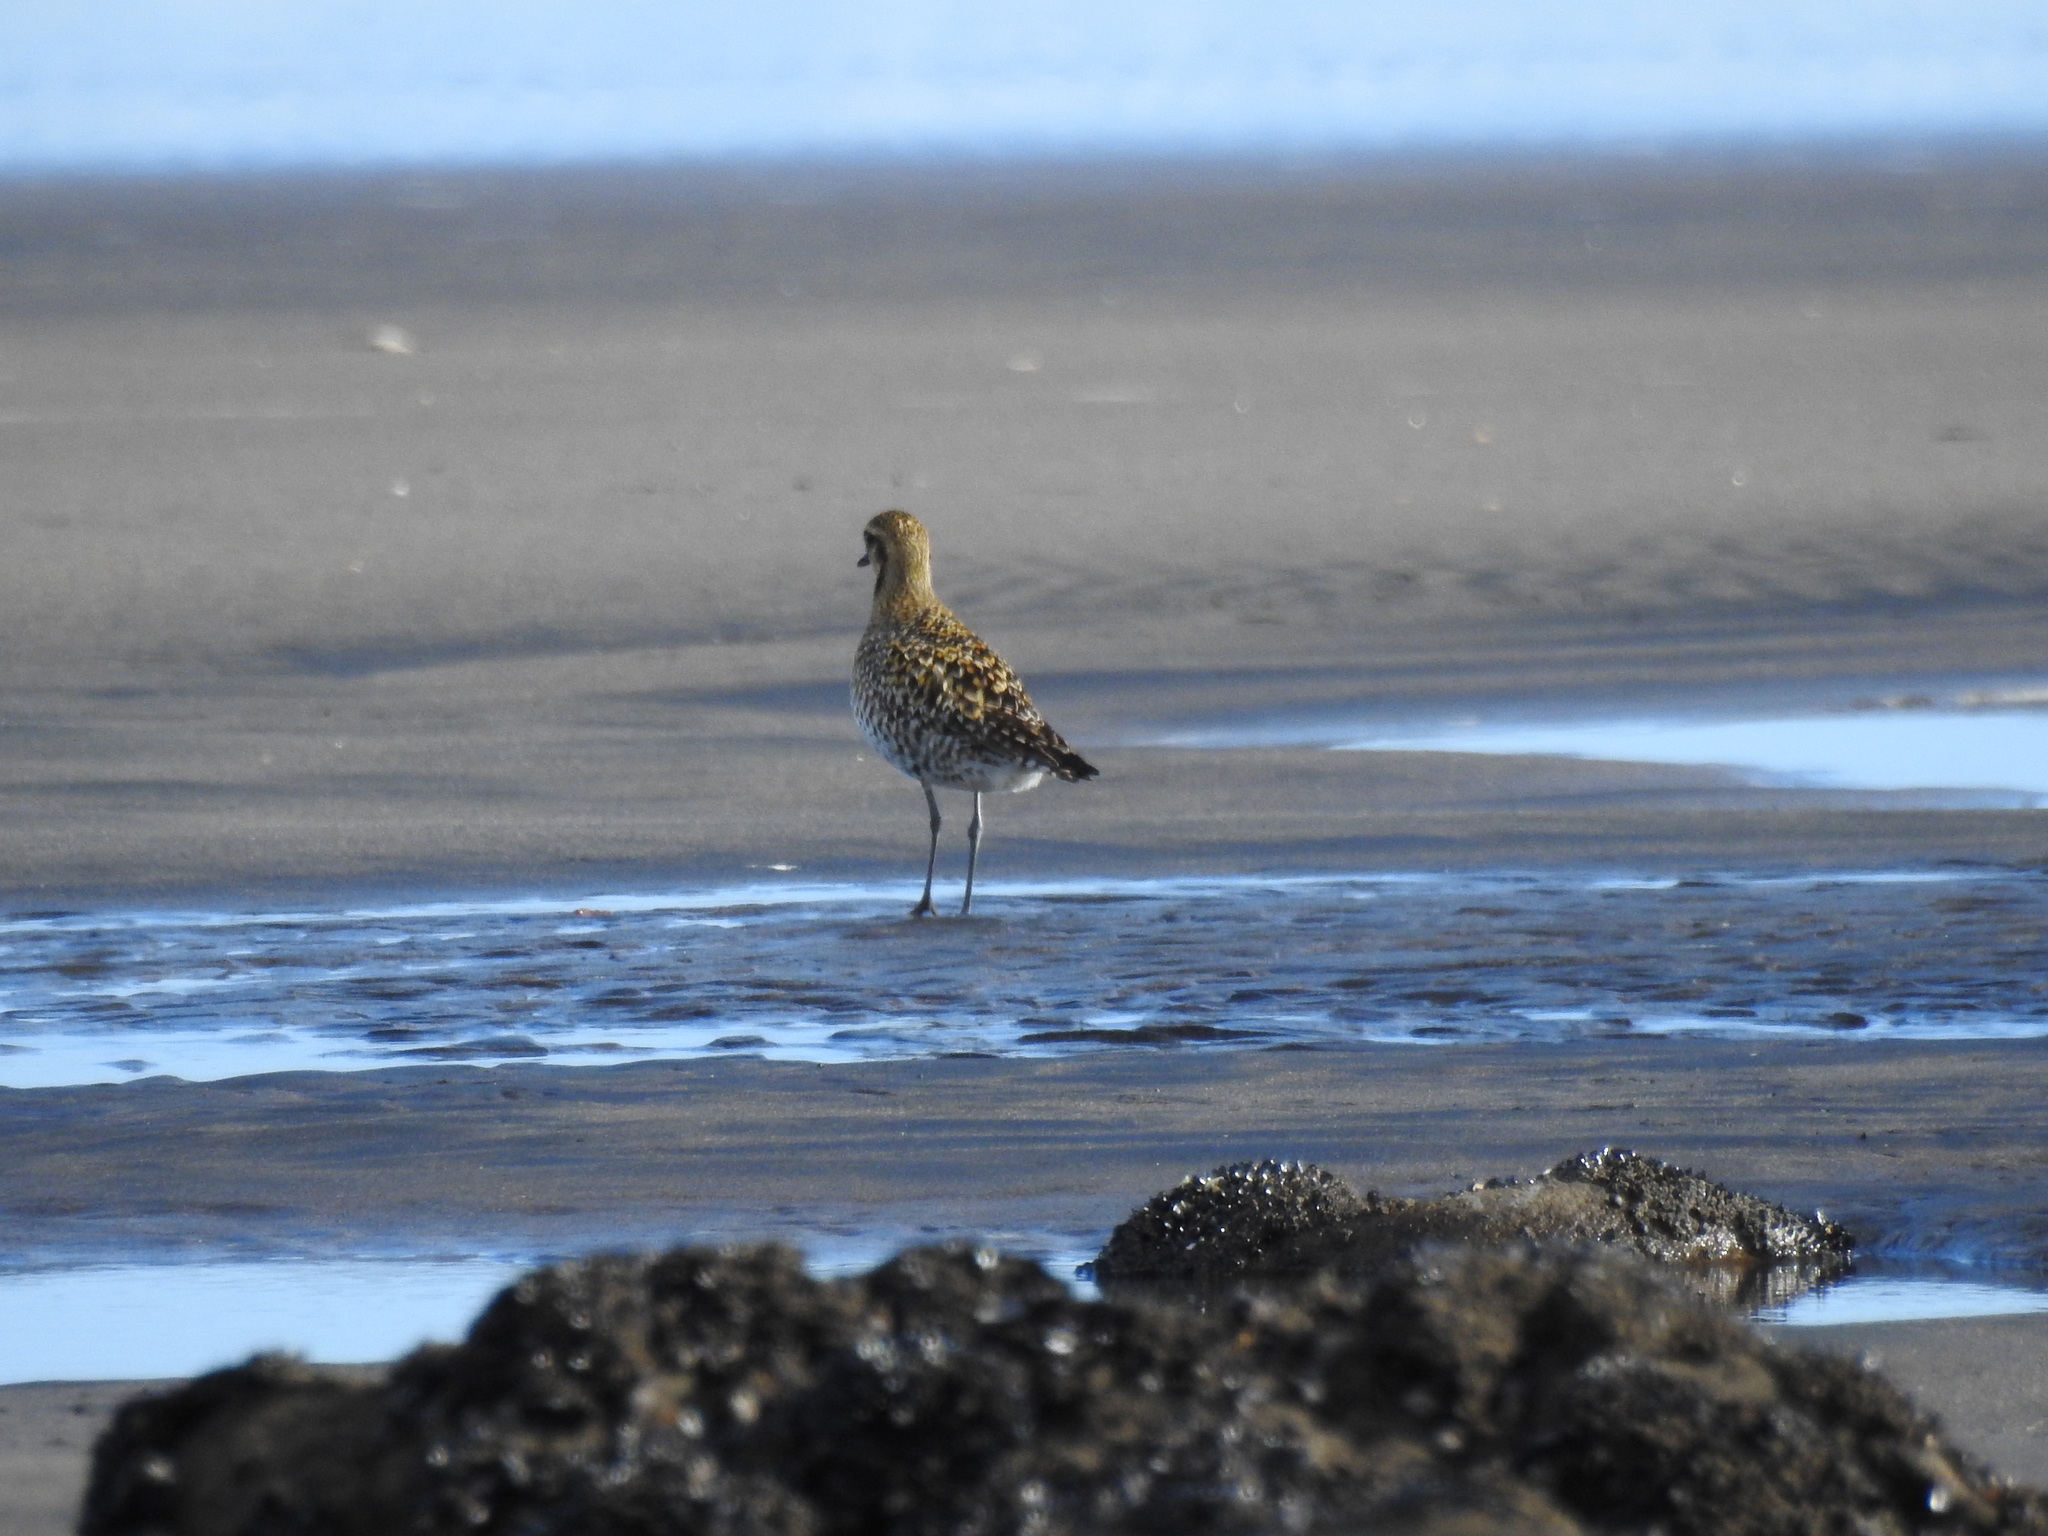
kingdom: Animalia
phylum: Chordata
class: Aves
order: Charadriiformes
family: Charadriidae
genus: Pluvialis
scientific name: Pluvialis fulva
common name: Pacific golden plover
